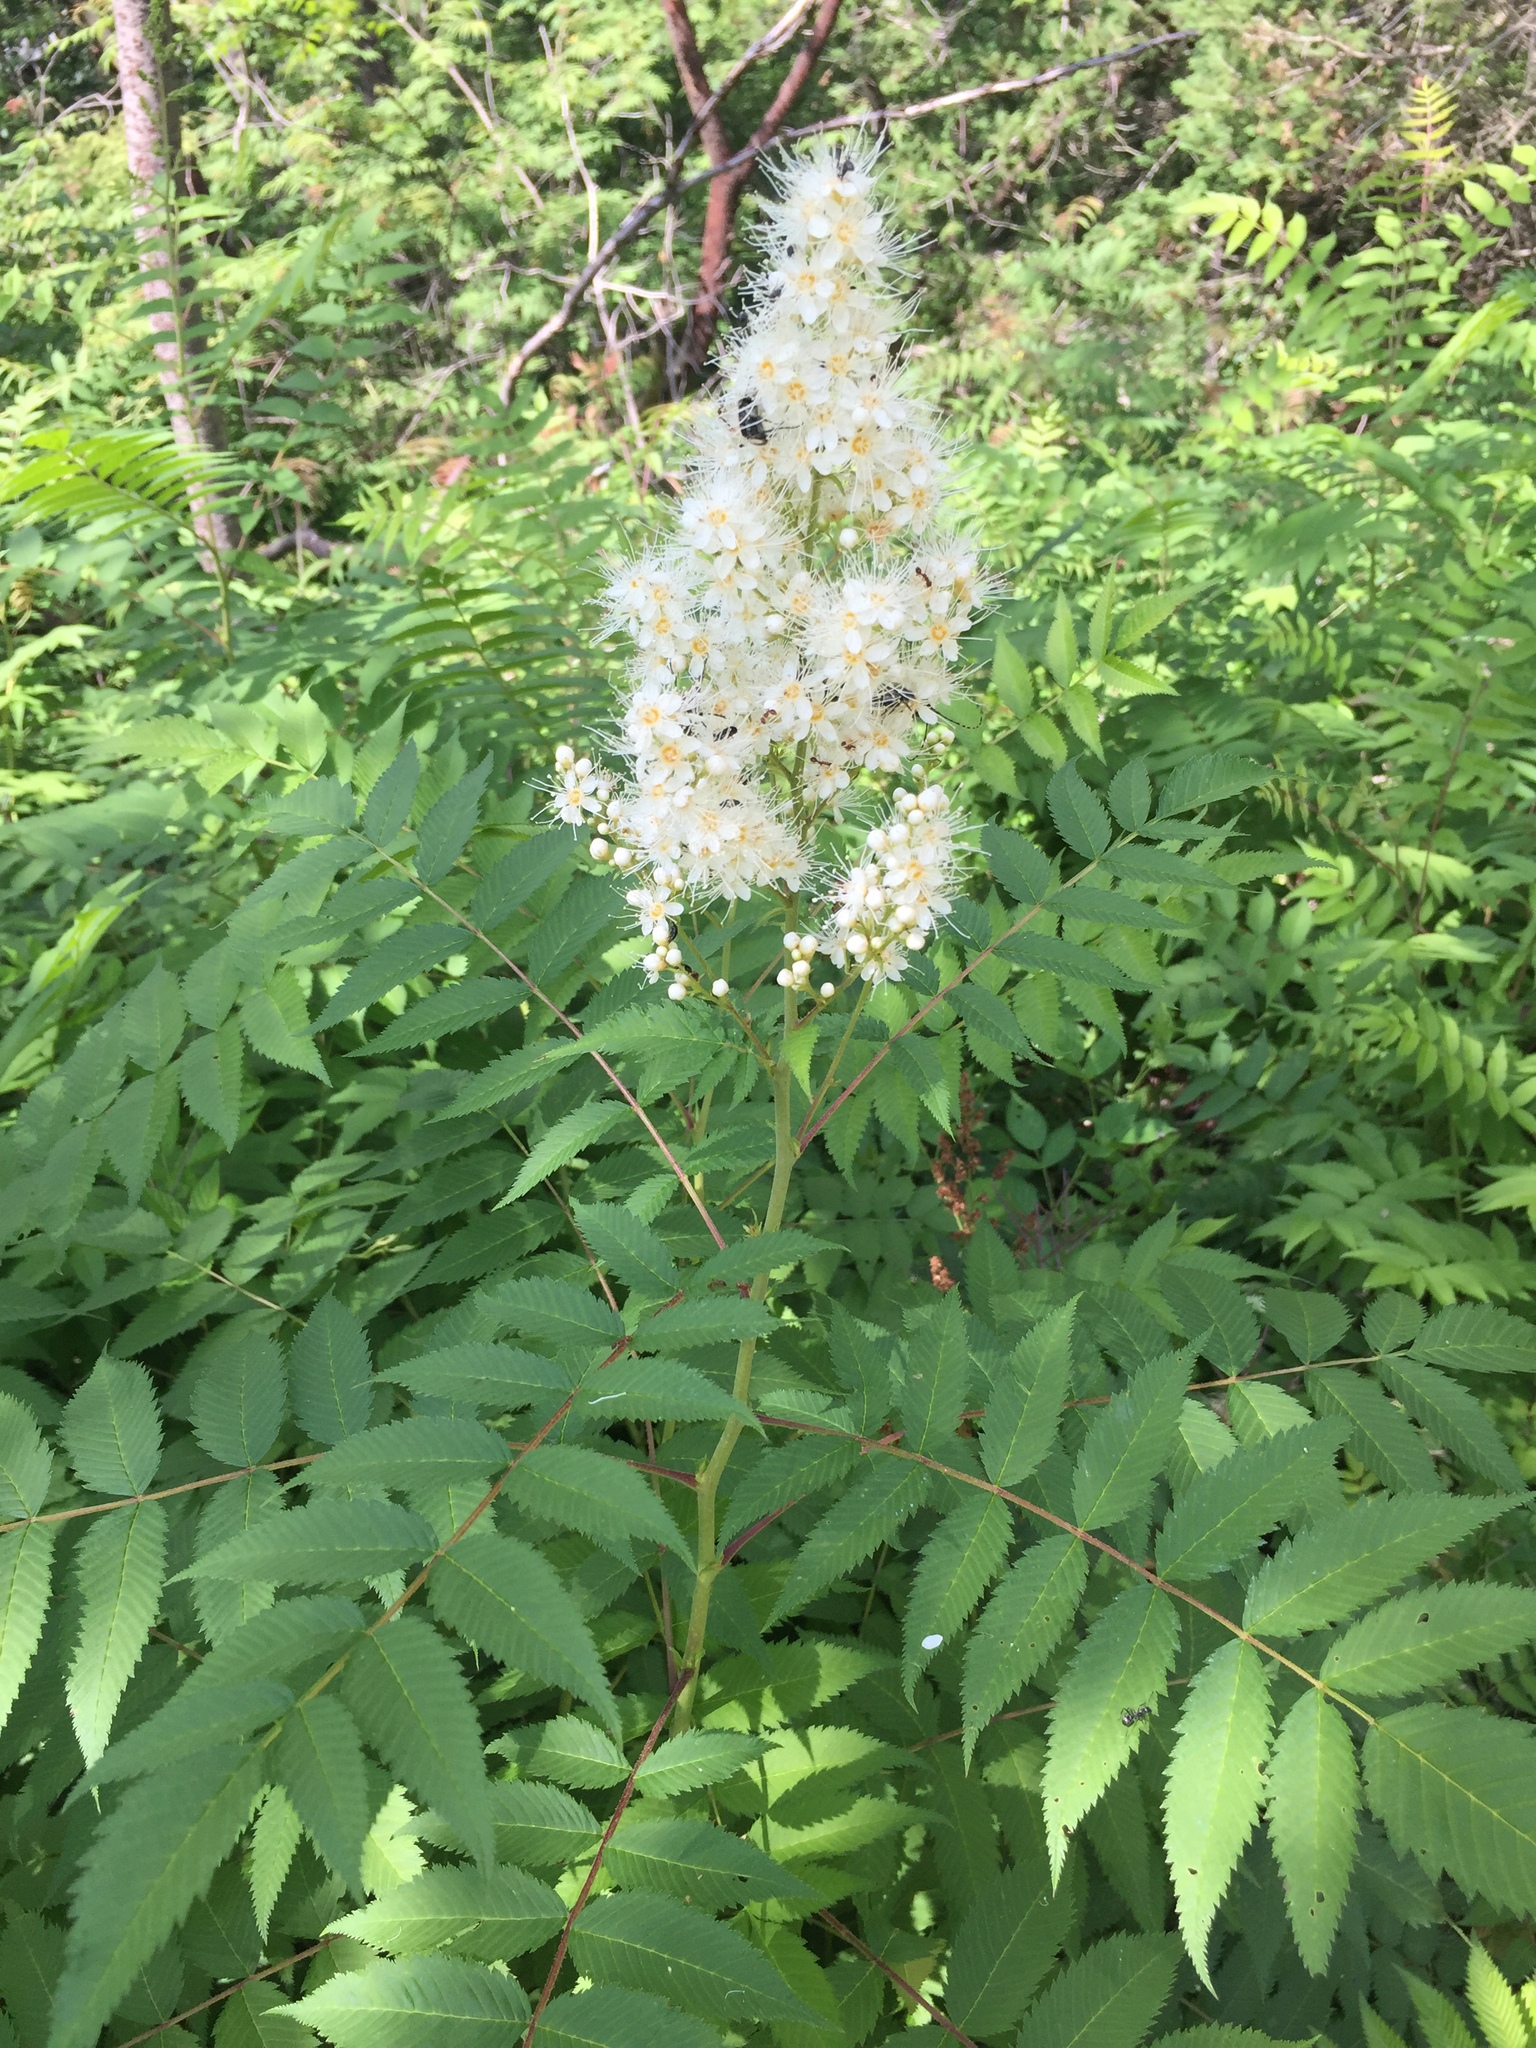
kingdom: Plantae
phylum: Tracheophyta
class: Magnoliopsida
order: Rosales
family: Rosaceae
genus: Sorbaria
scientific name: Sorbaria sorbifolia
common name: False spiraea
